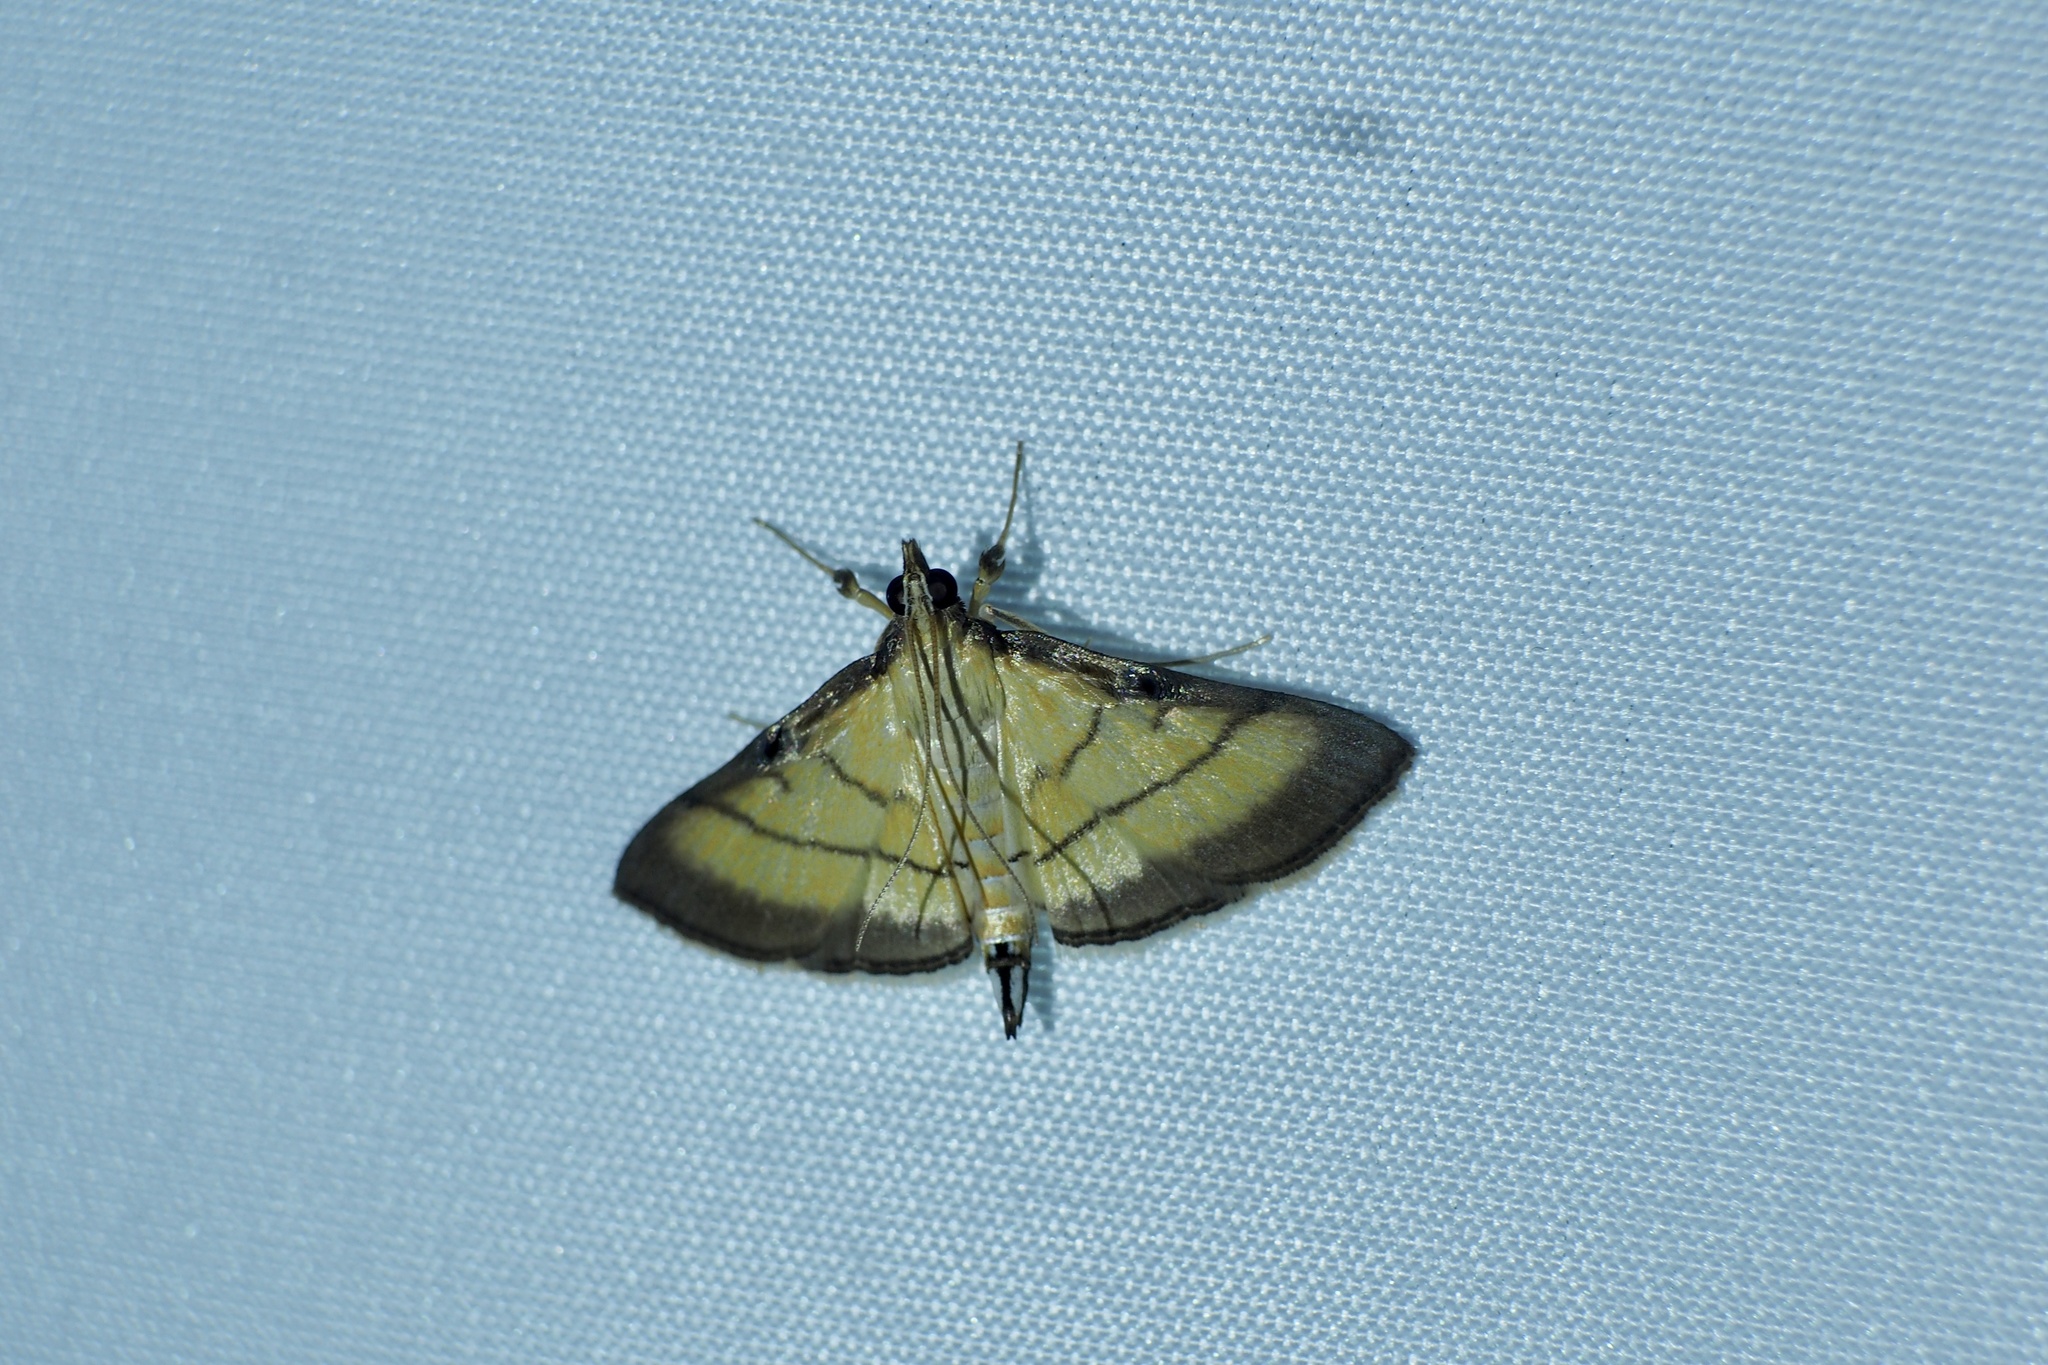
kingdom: Animalia
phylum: Arthropoda
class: Insecta
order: Lepidoptera
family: Crambidae
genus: Cnaphalocrocis
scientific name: Cnaphalocrocis medinalis
